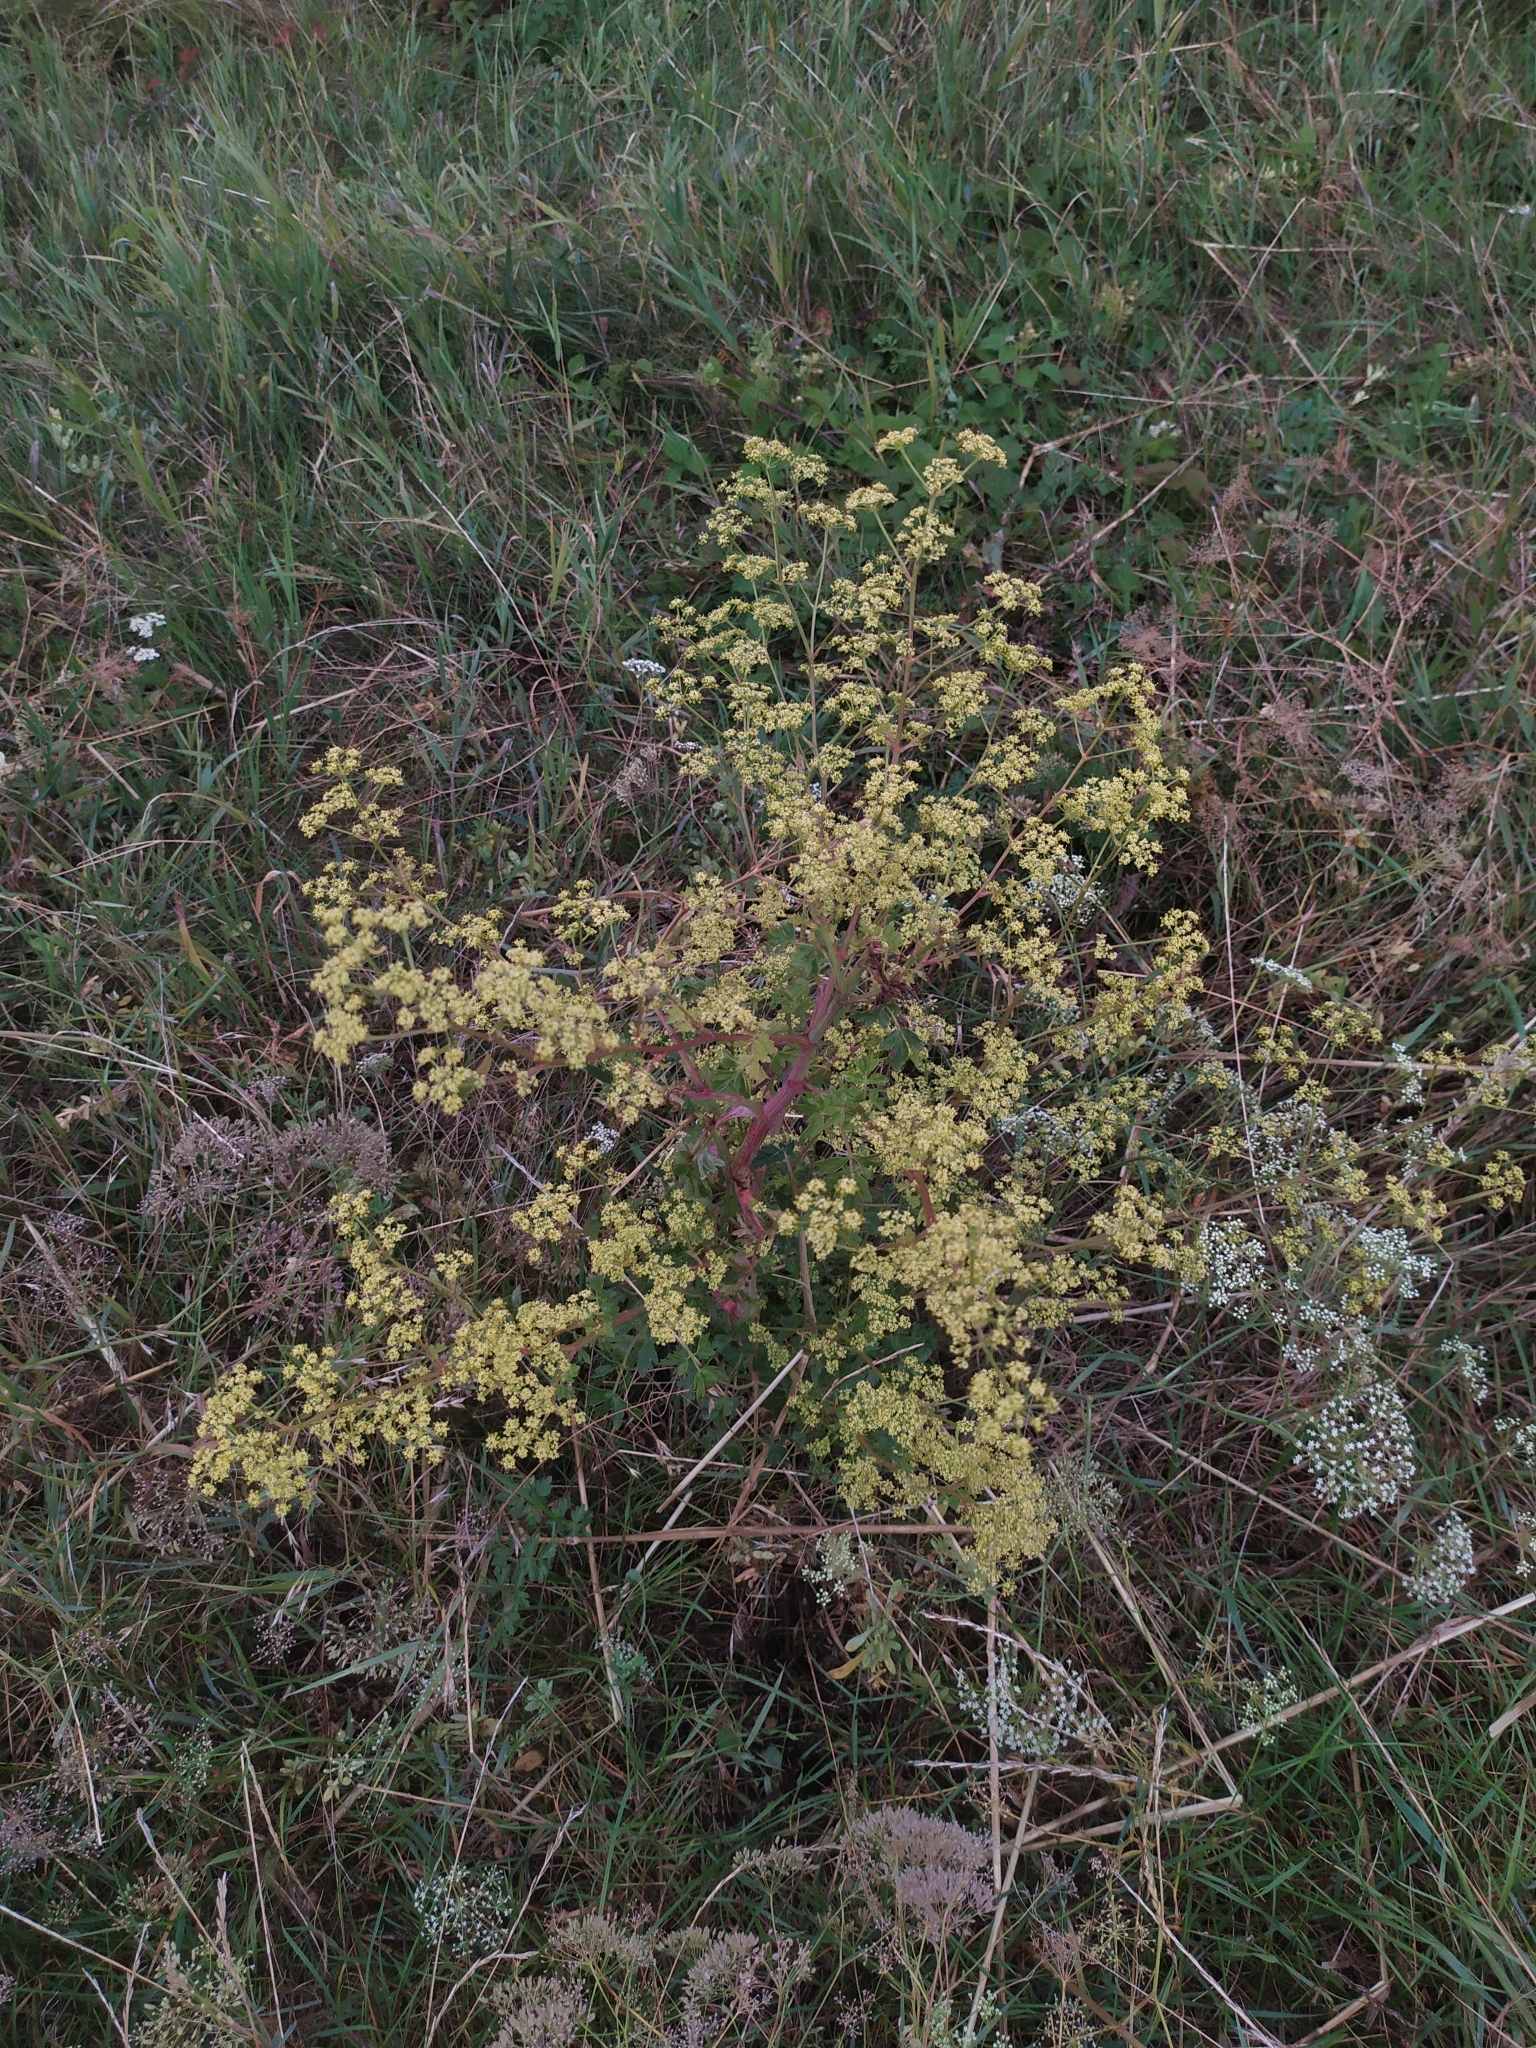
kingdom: Plantae
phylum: Tracheophyta
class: Magnoliopsida
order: Apiales
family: Apiaceae
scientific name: Apiaceae
